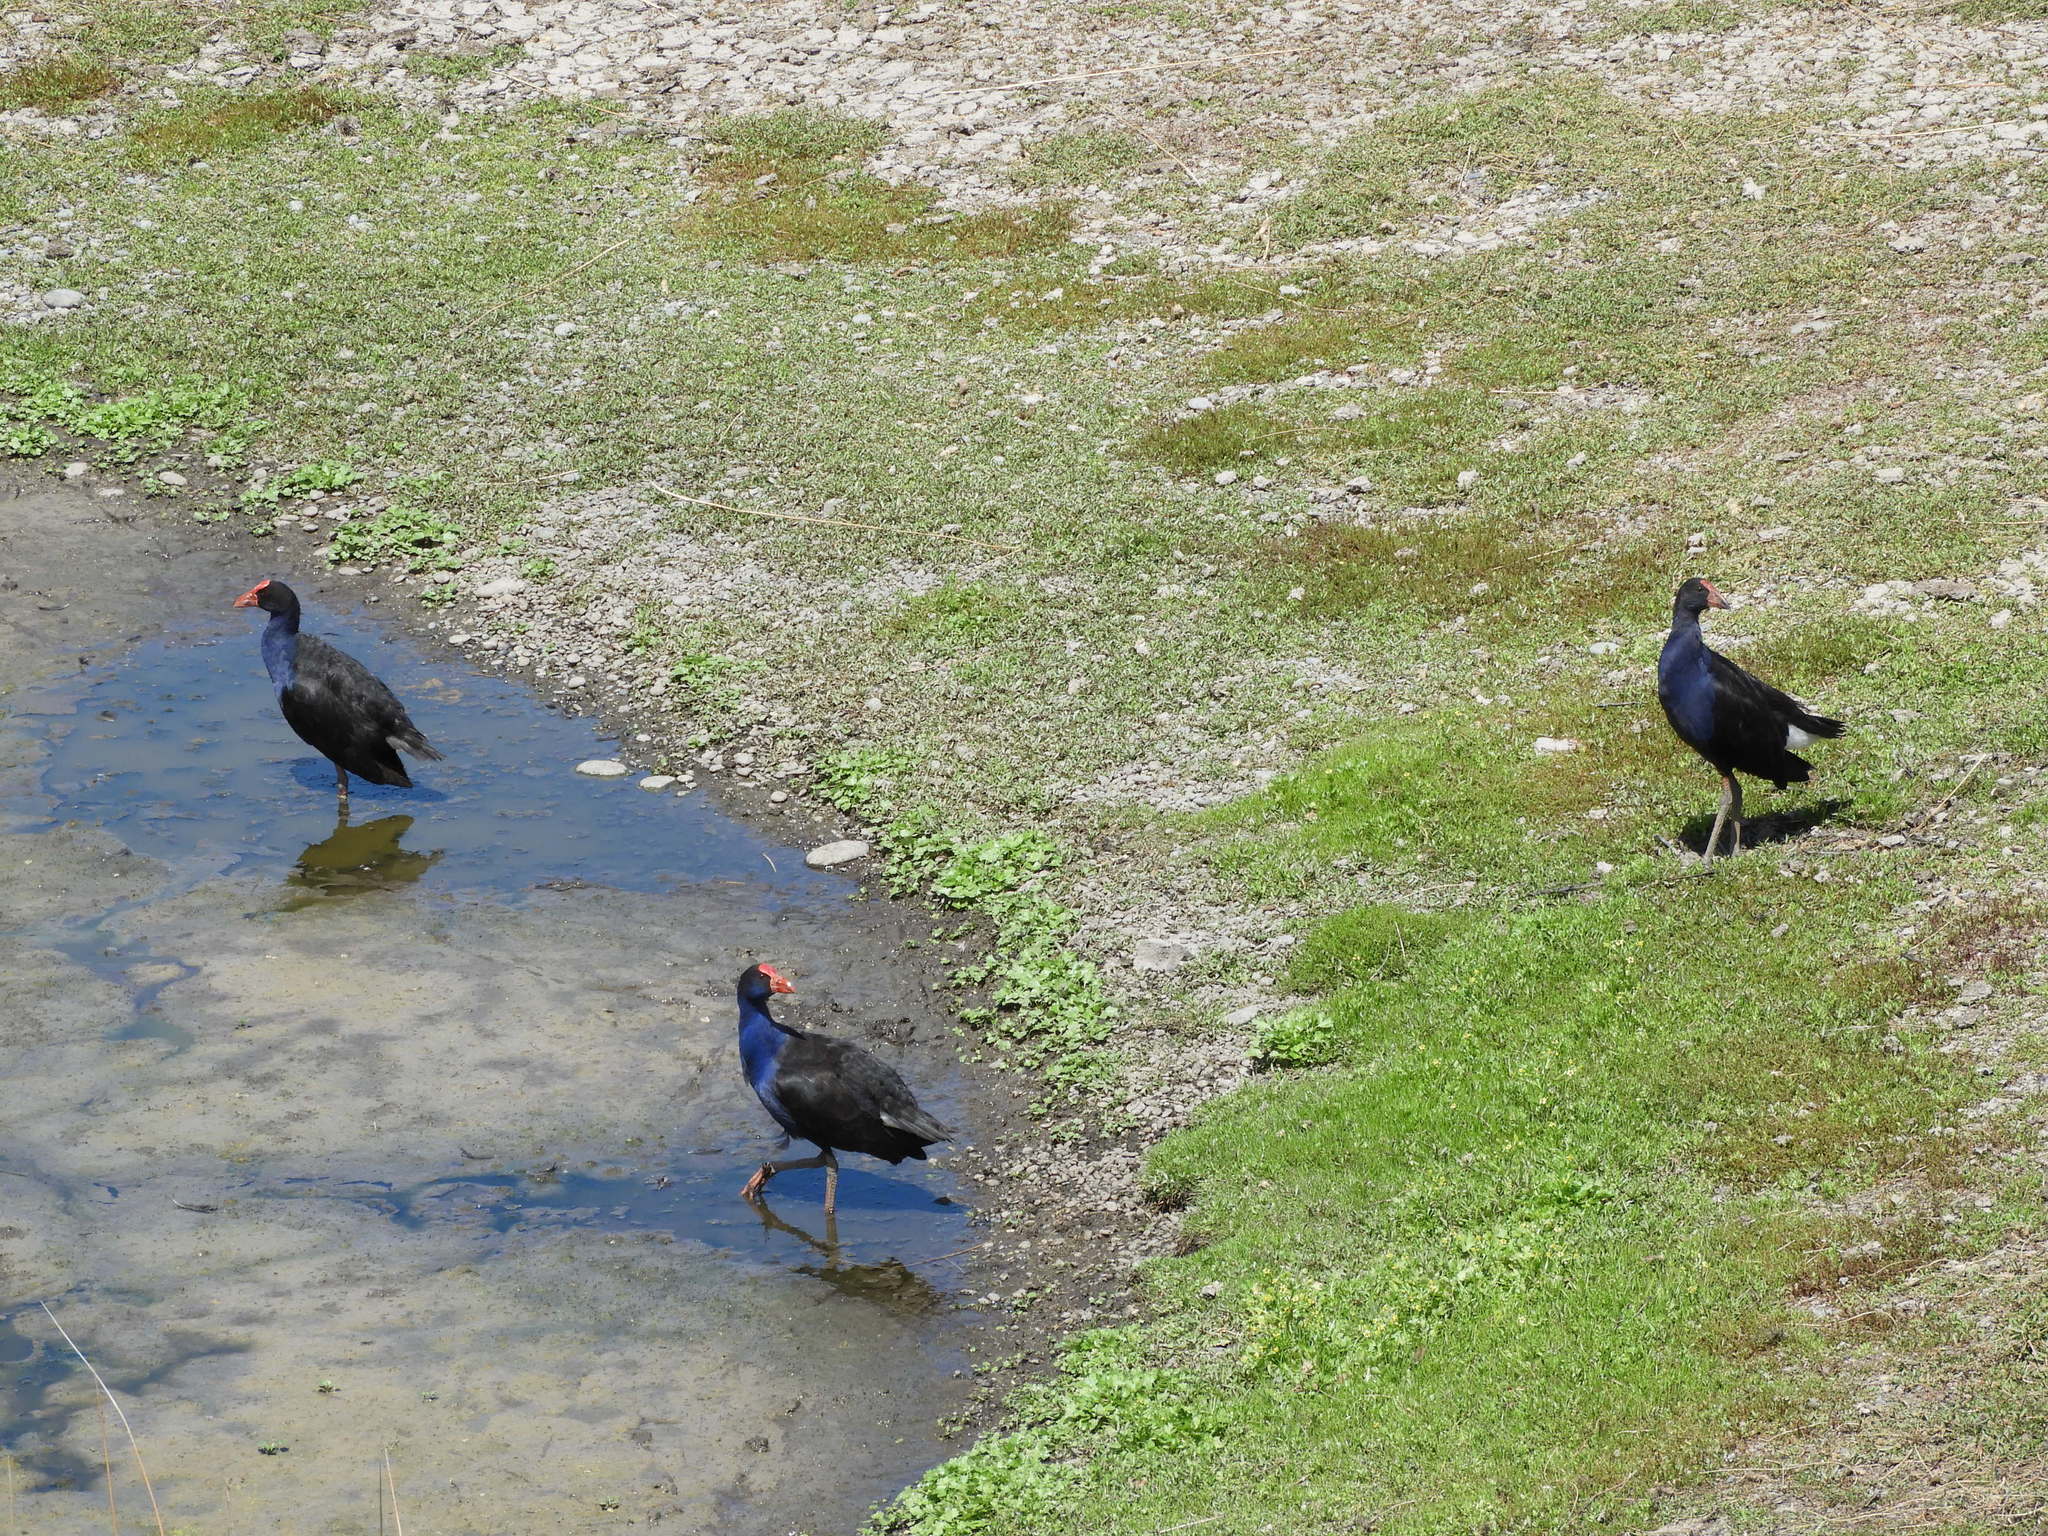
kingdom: Animalia
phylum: Chordata
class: Aves
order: Gruiformes
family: Rallidae
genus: Porphyrio
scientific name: Porphyrio melanotus
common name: Australasian swamphen
